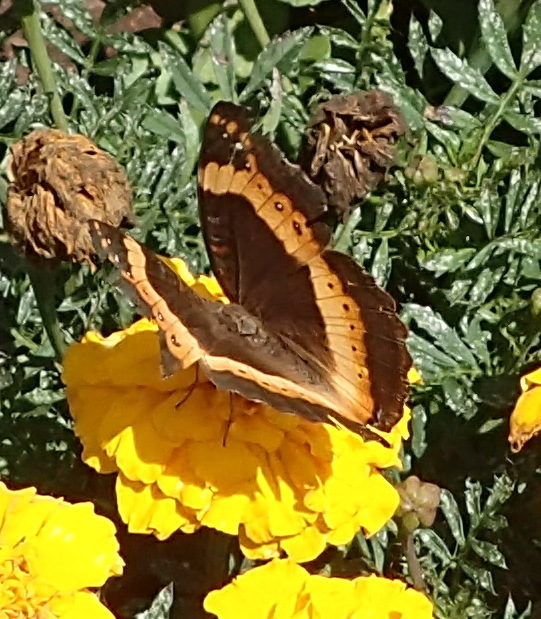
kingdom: Animalia
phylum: Arthropoda
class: Insecta
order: Lepidoptera
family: Nymphalidae
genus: Junonia
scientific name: Junonia archesia
